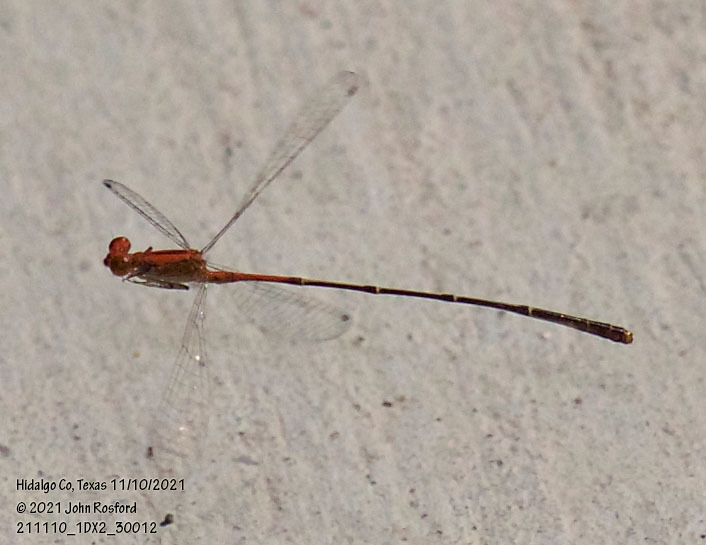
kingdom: Animalia
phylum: Arthropoda
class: Insecta
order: Odonata
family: Coenagrionidae
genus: Neoneura
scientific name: Neoneura amelia
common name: Amelia’s threadtail
